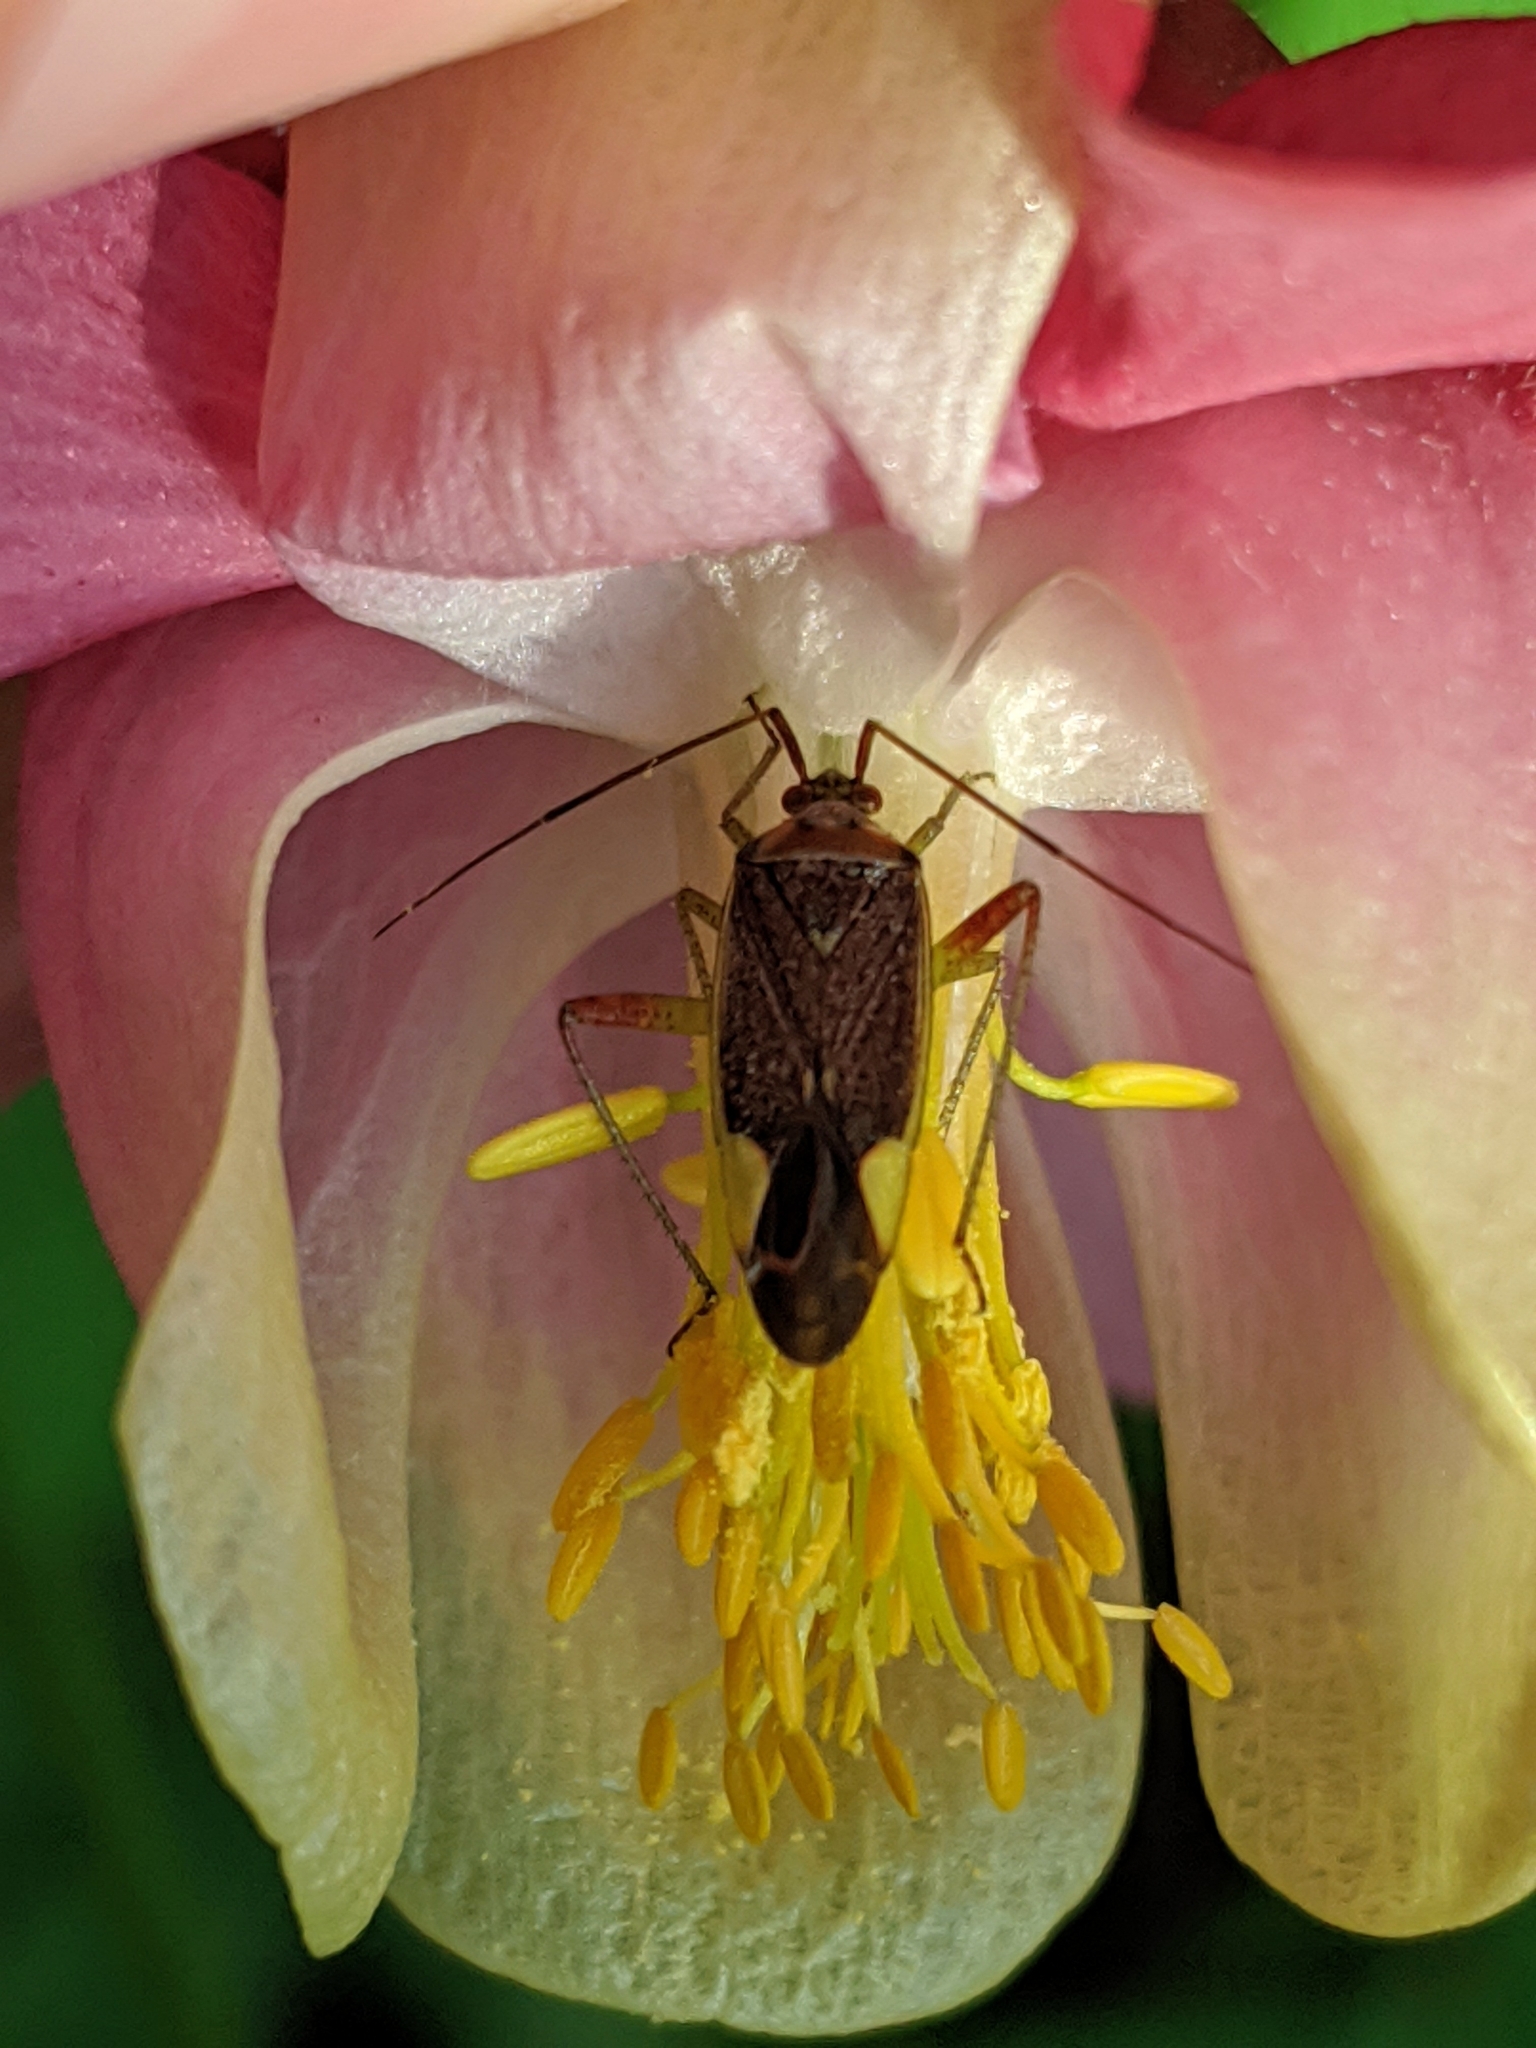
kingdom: Animalia
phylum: Arthropoda
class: Insecta
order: Hemiptera
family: Miridae
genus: Closterotomus
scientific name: Closterotomus trivialis
